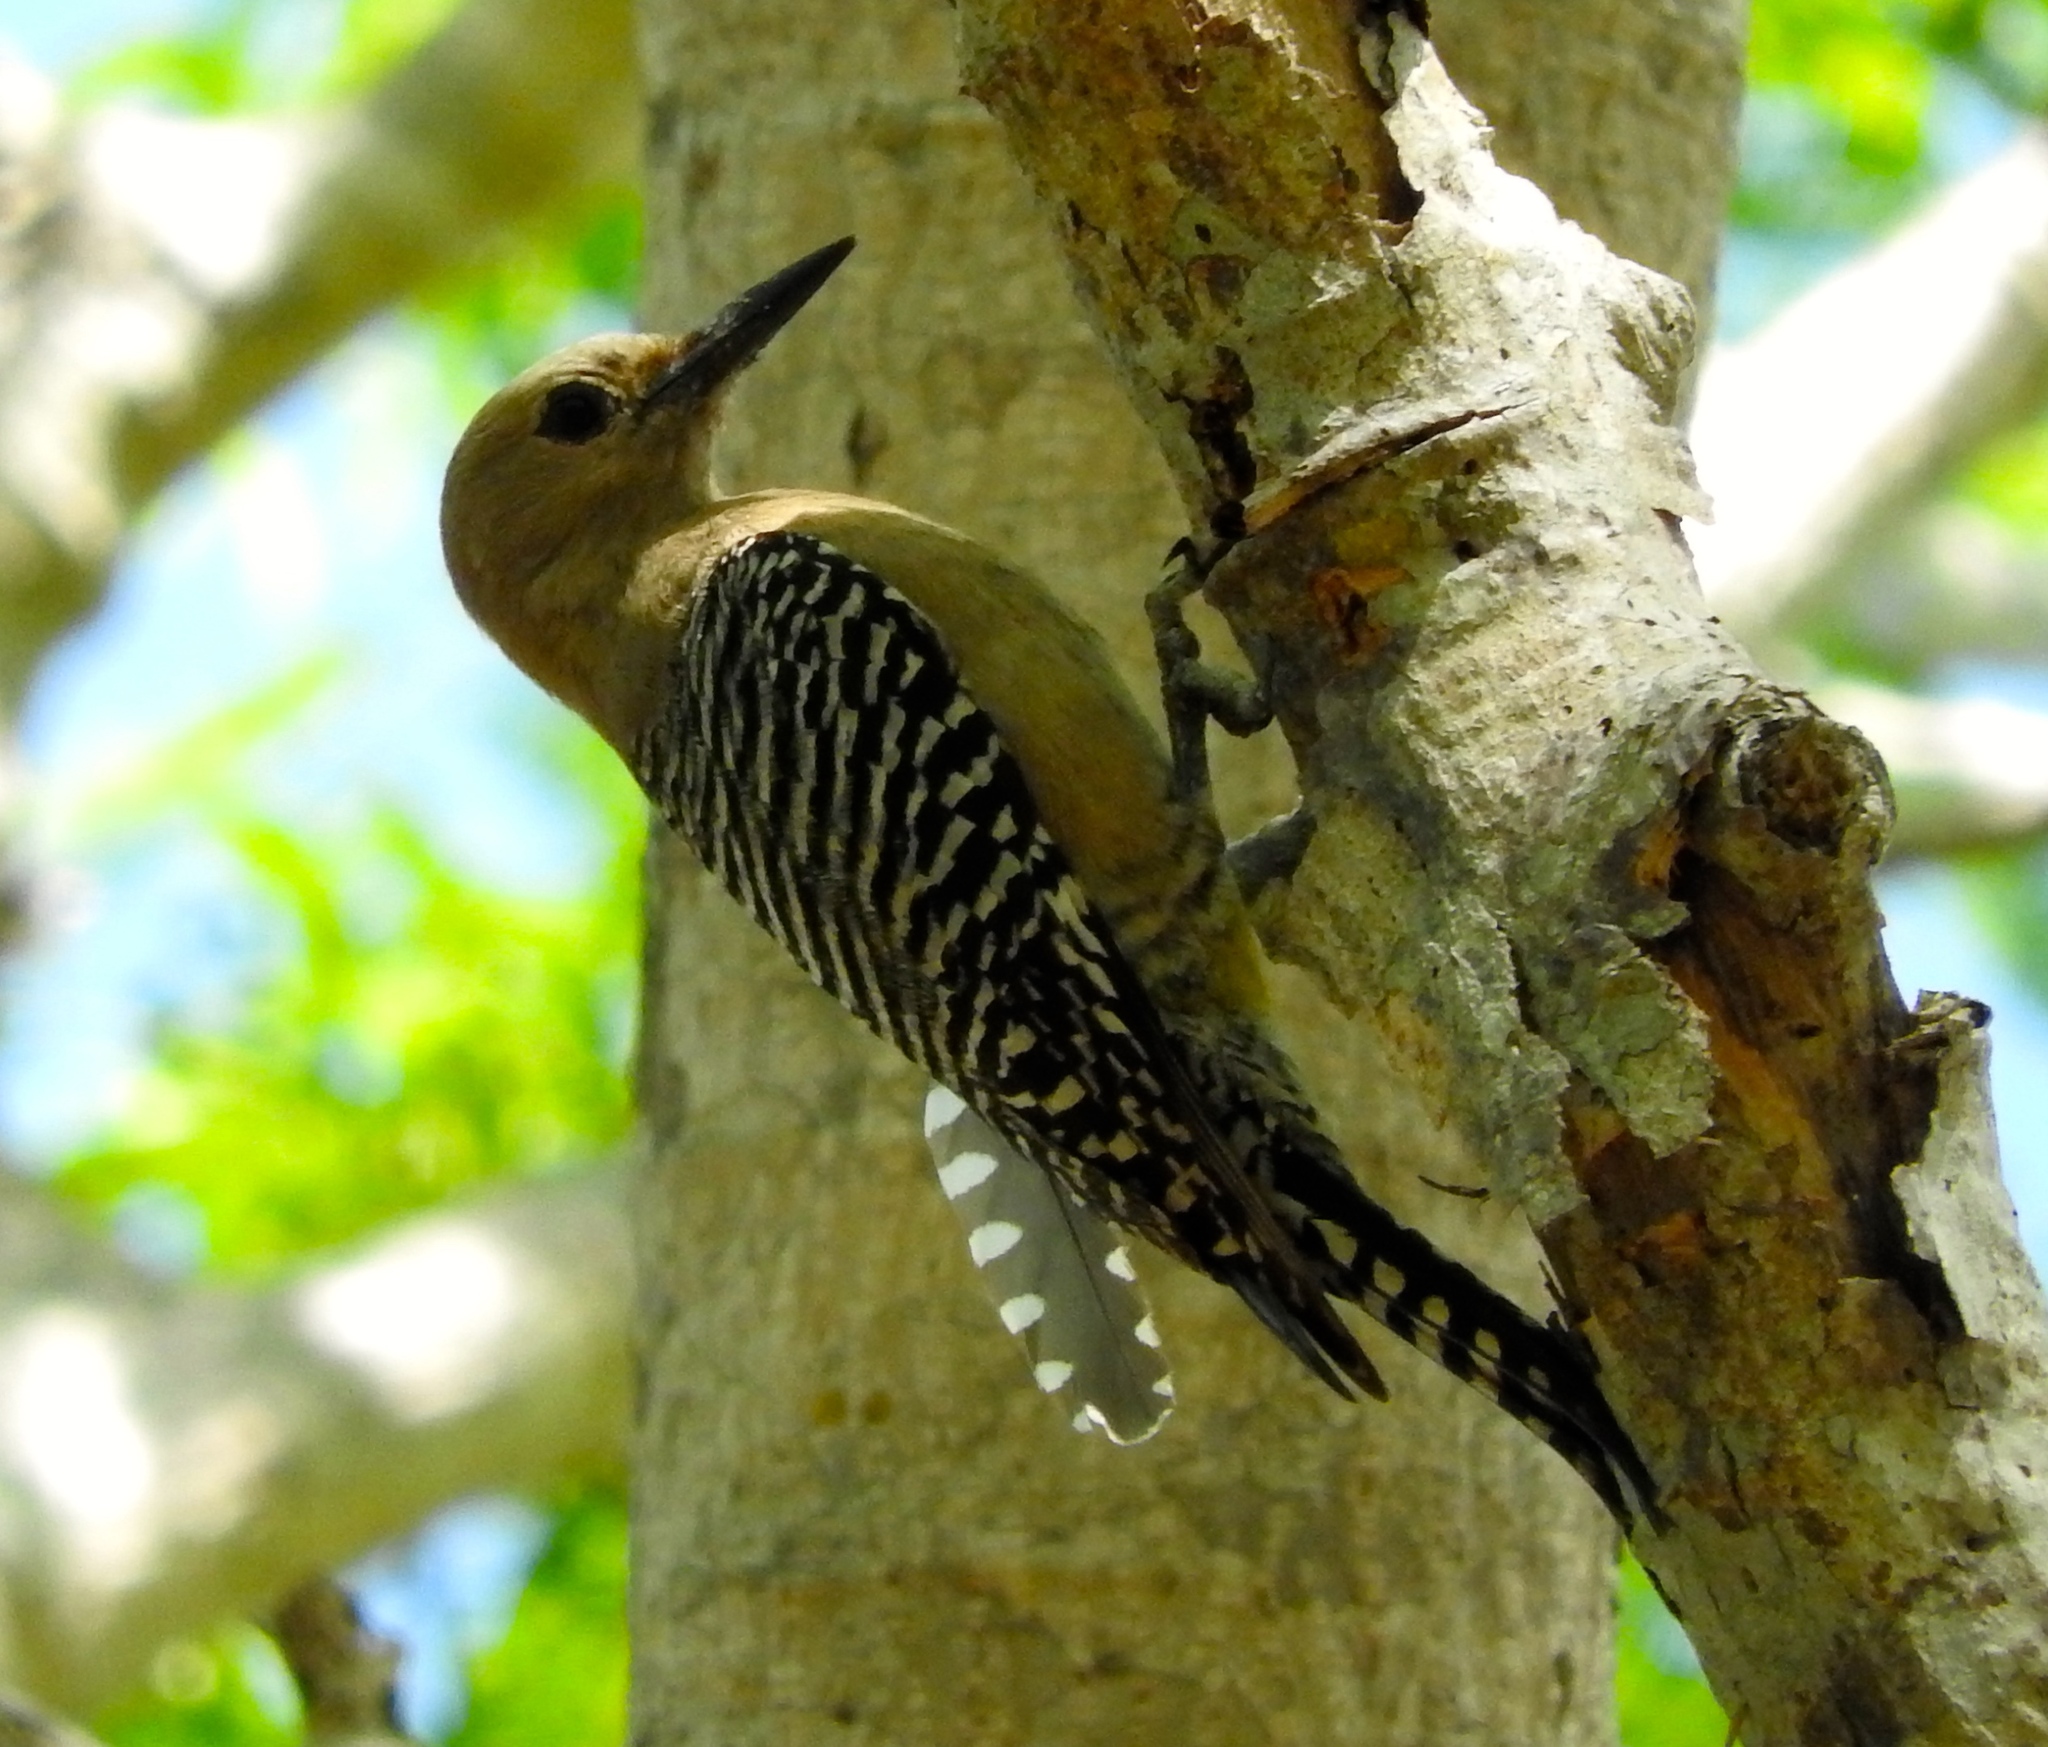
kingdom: Animalia
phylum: Chordata
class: Aves
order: Piciformes
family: Picidae
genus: Melanerpes
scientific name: Melanerpes uropygialis
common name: Gila woodpecker
